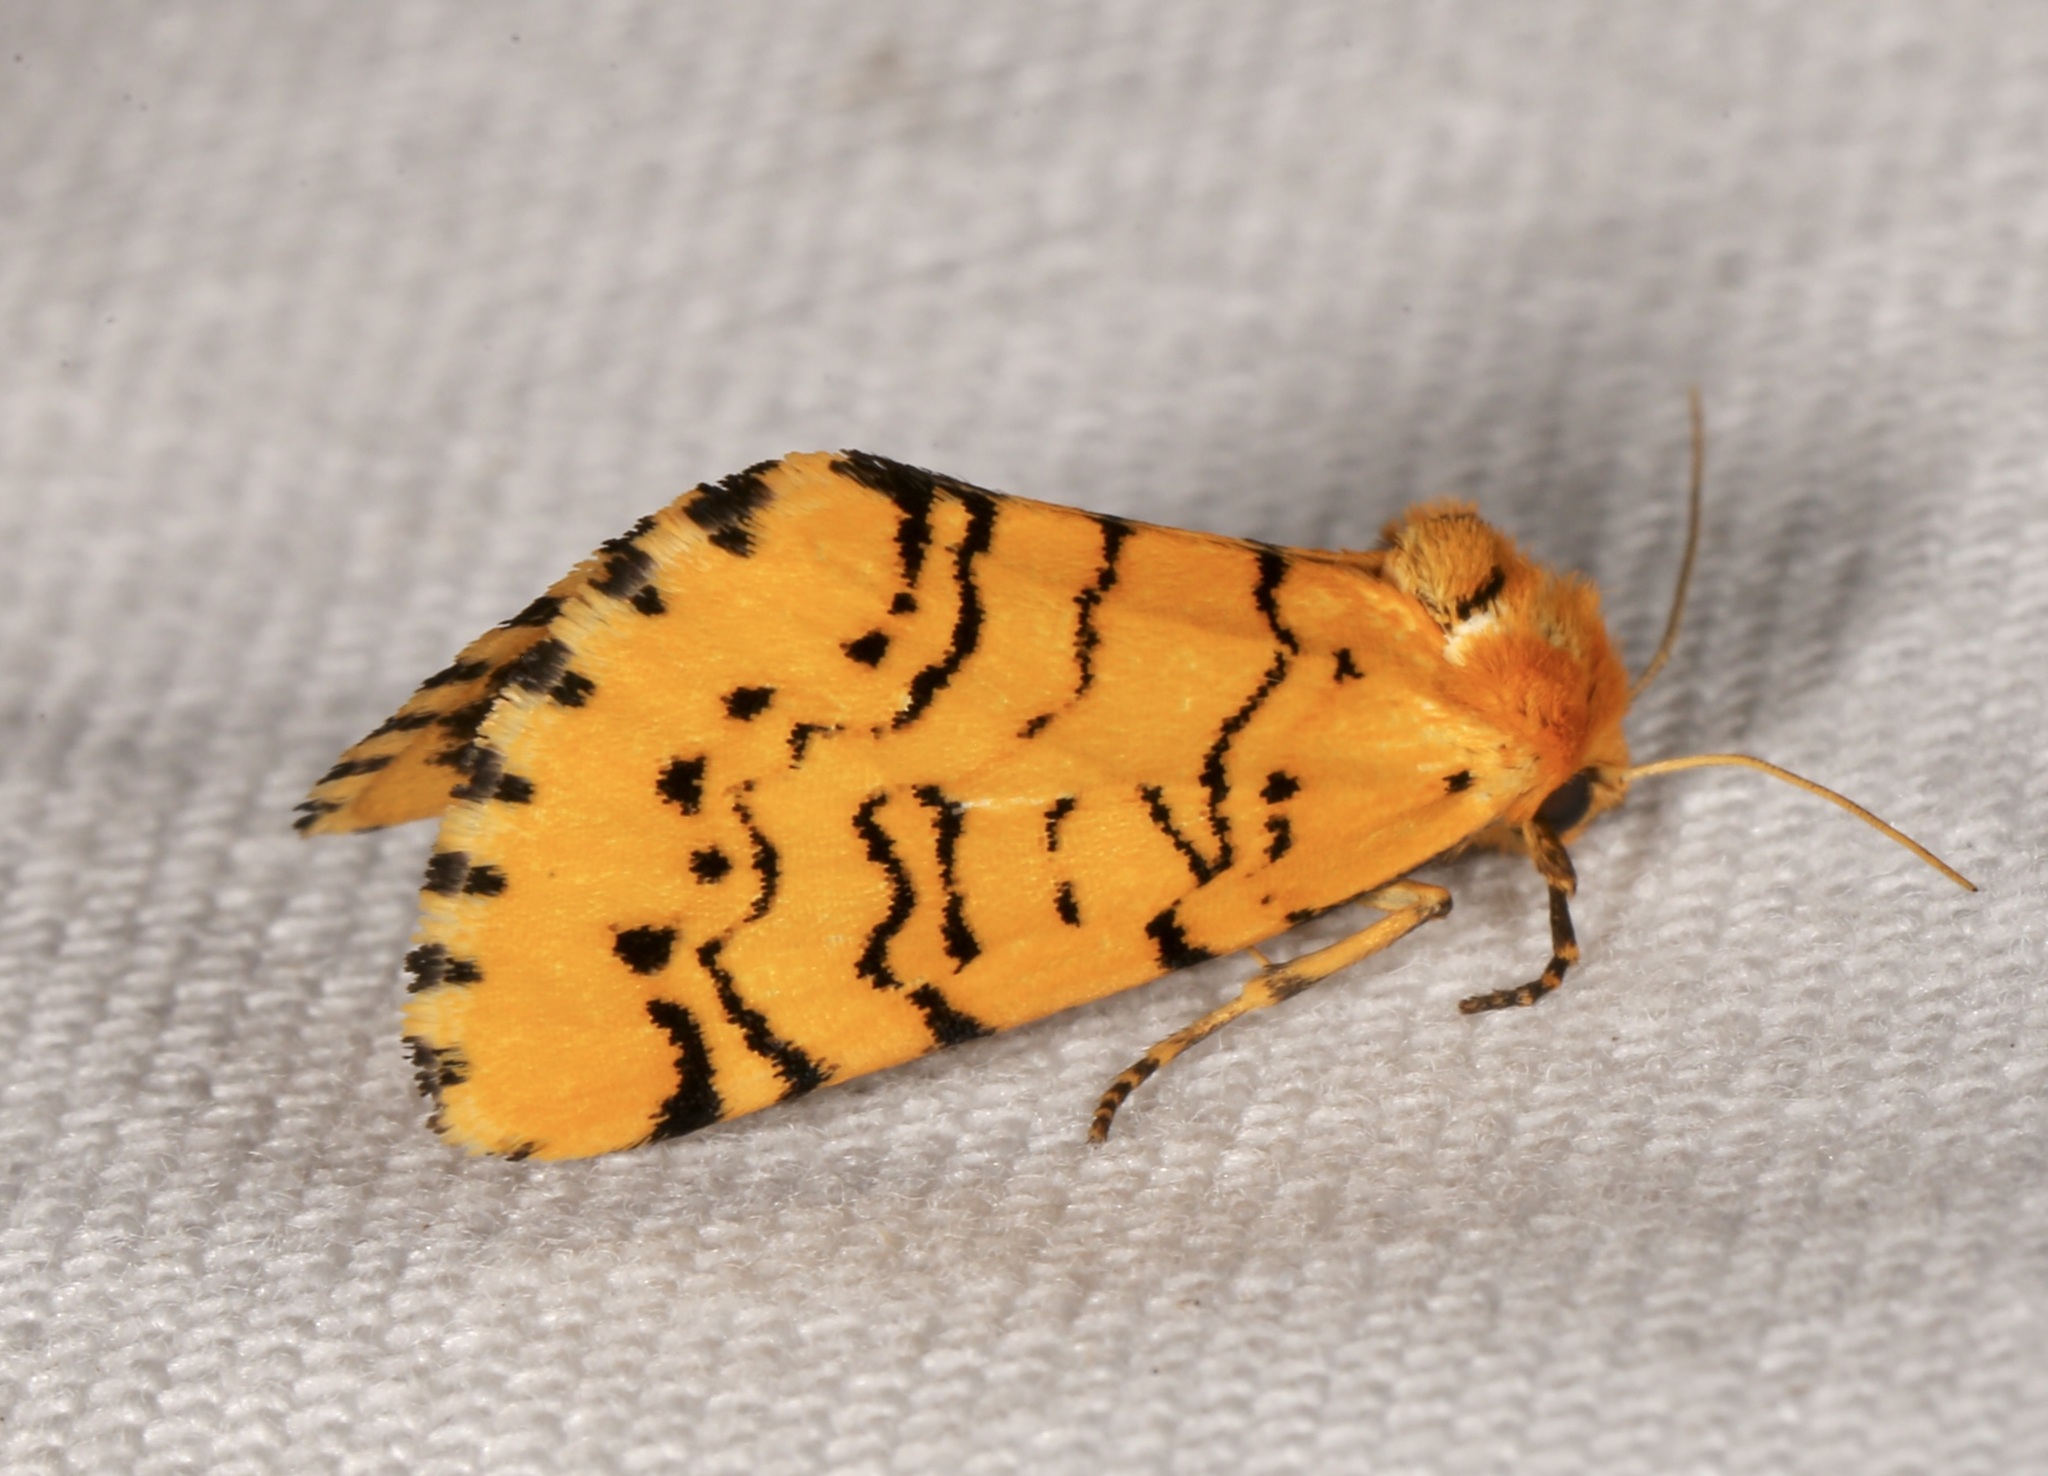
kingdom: Animalia
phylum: Arthropoda
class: Insecta
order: Lepidoptera
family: Noctuidae
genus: Chrysoecia
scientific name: Chrysoecia atrolinea
